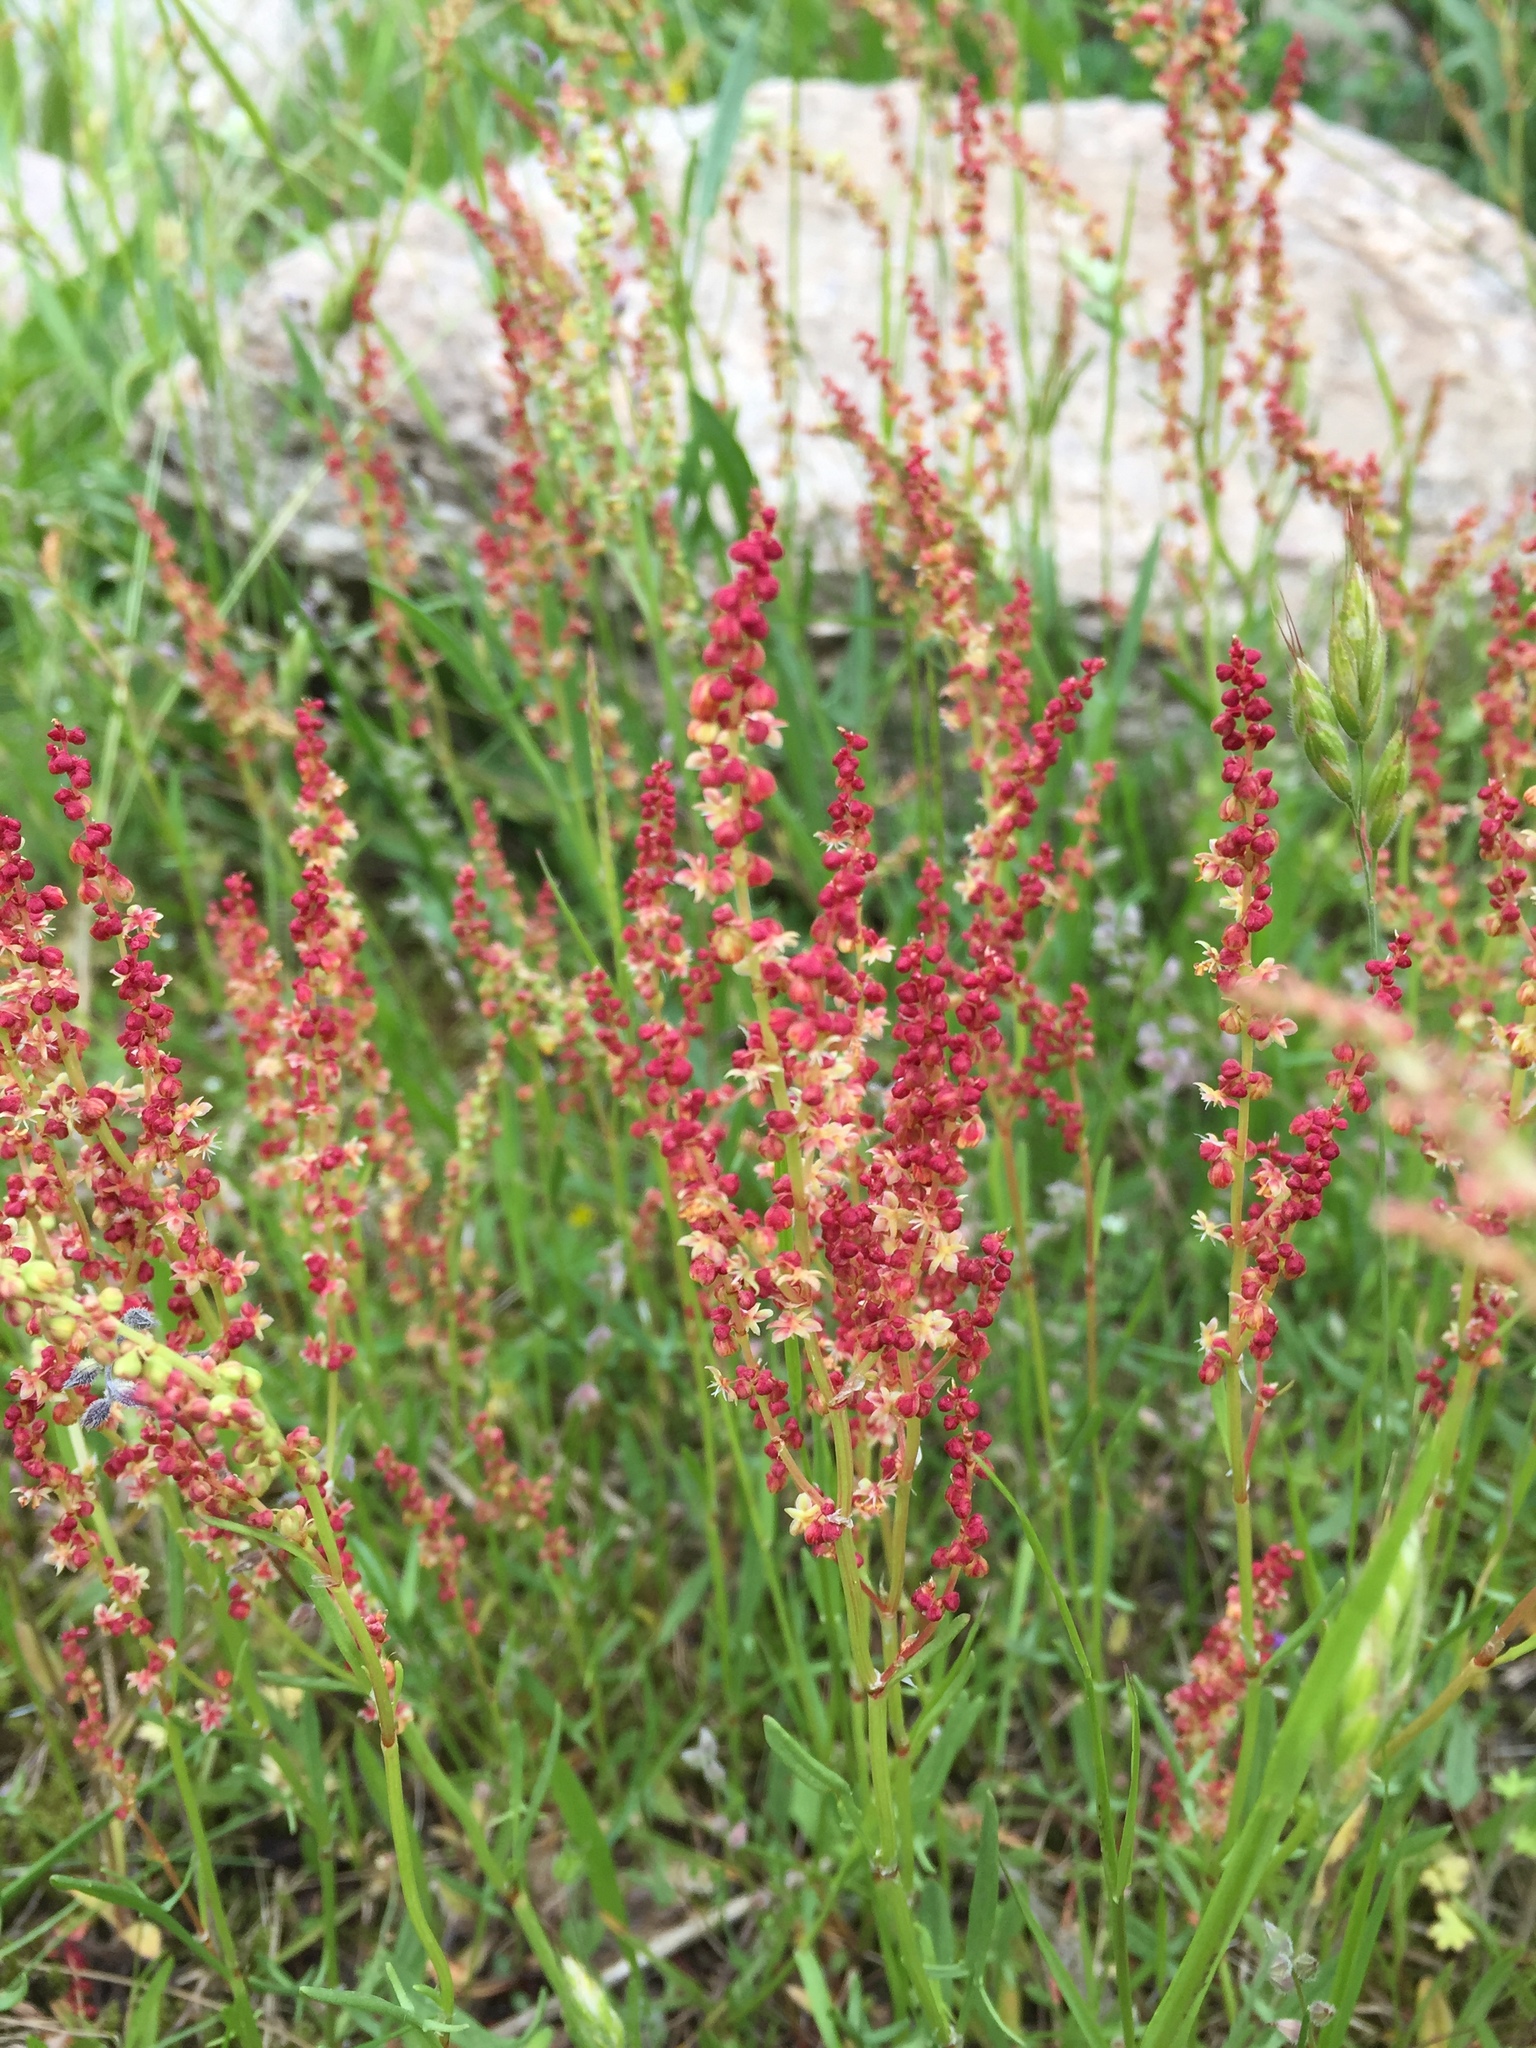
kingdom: Plantae
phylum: Tracheophyta
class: Magnoliopsida
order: Caryophyllales
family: Polygonaceae
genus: Rumex
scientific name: Rumex acetosella
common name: Common sheep sorrel
